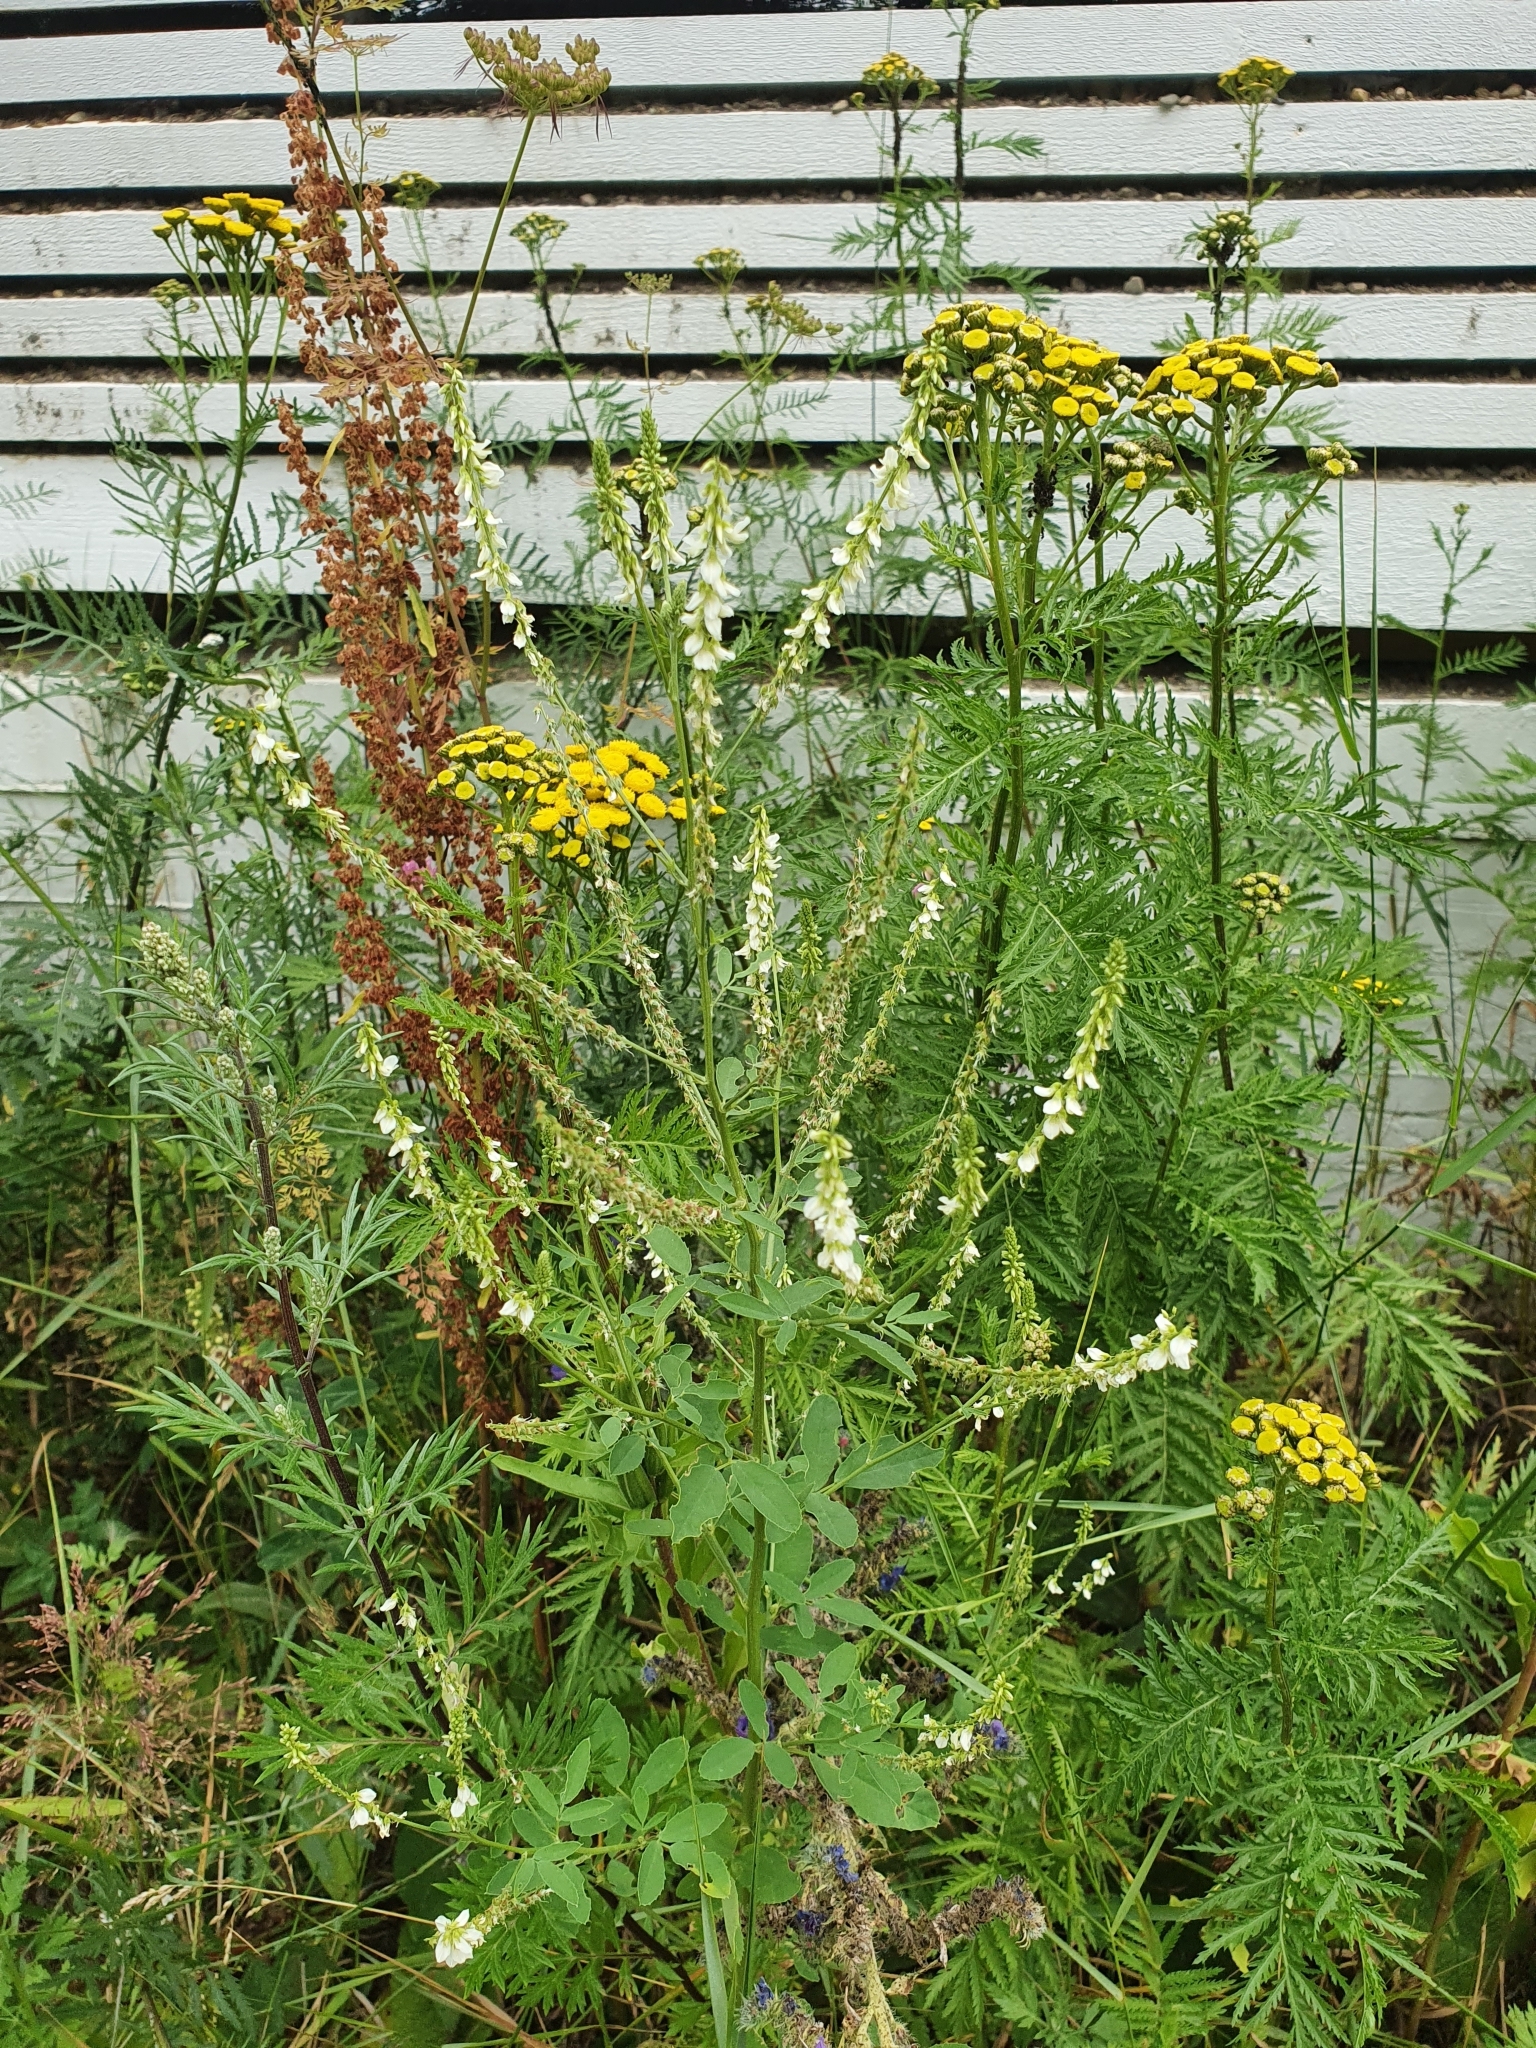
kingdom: Plantae
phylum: Tracheophyta
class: Magnoliopsida
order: Fabales
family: Fabaceae
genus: Melilotus
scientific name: Melilotus albus
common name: White melilot
